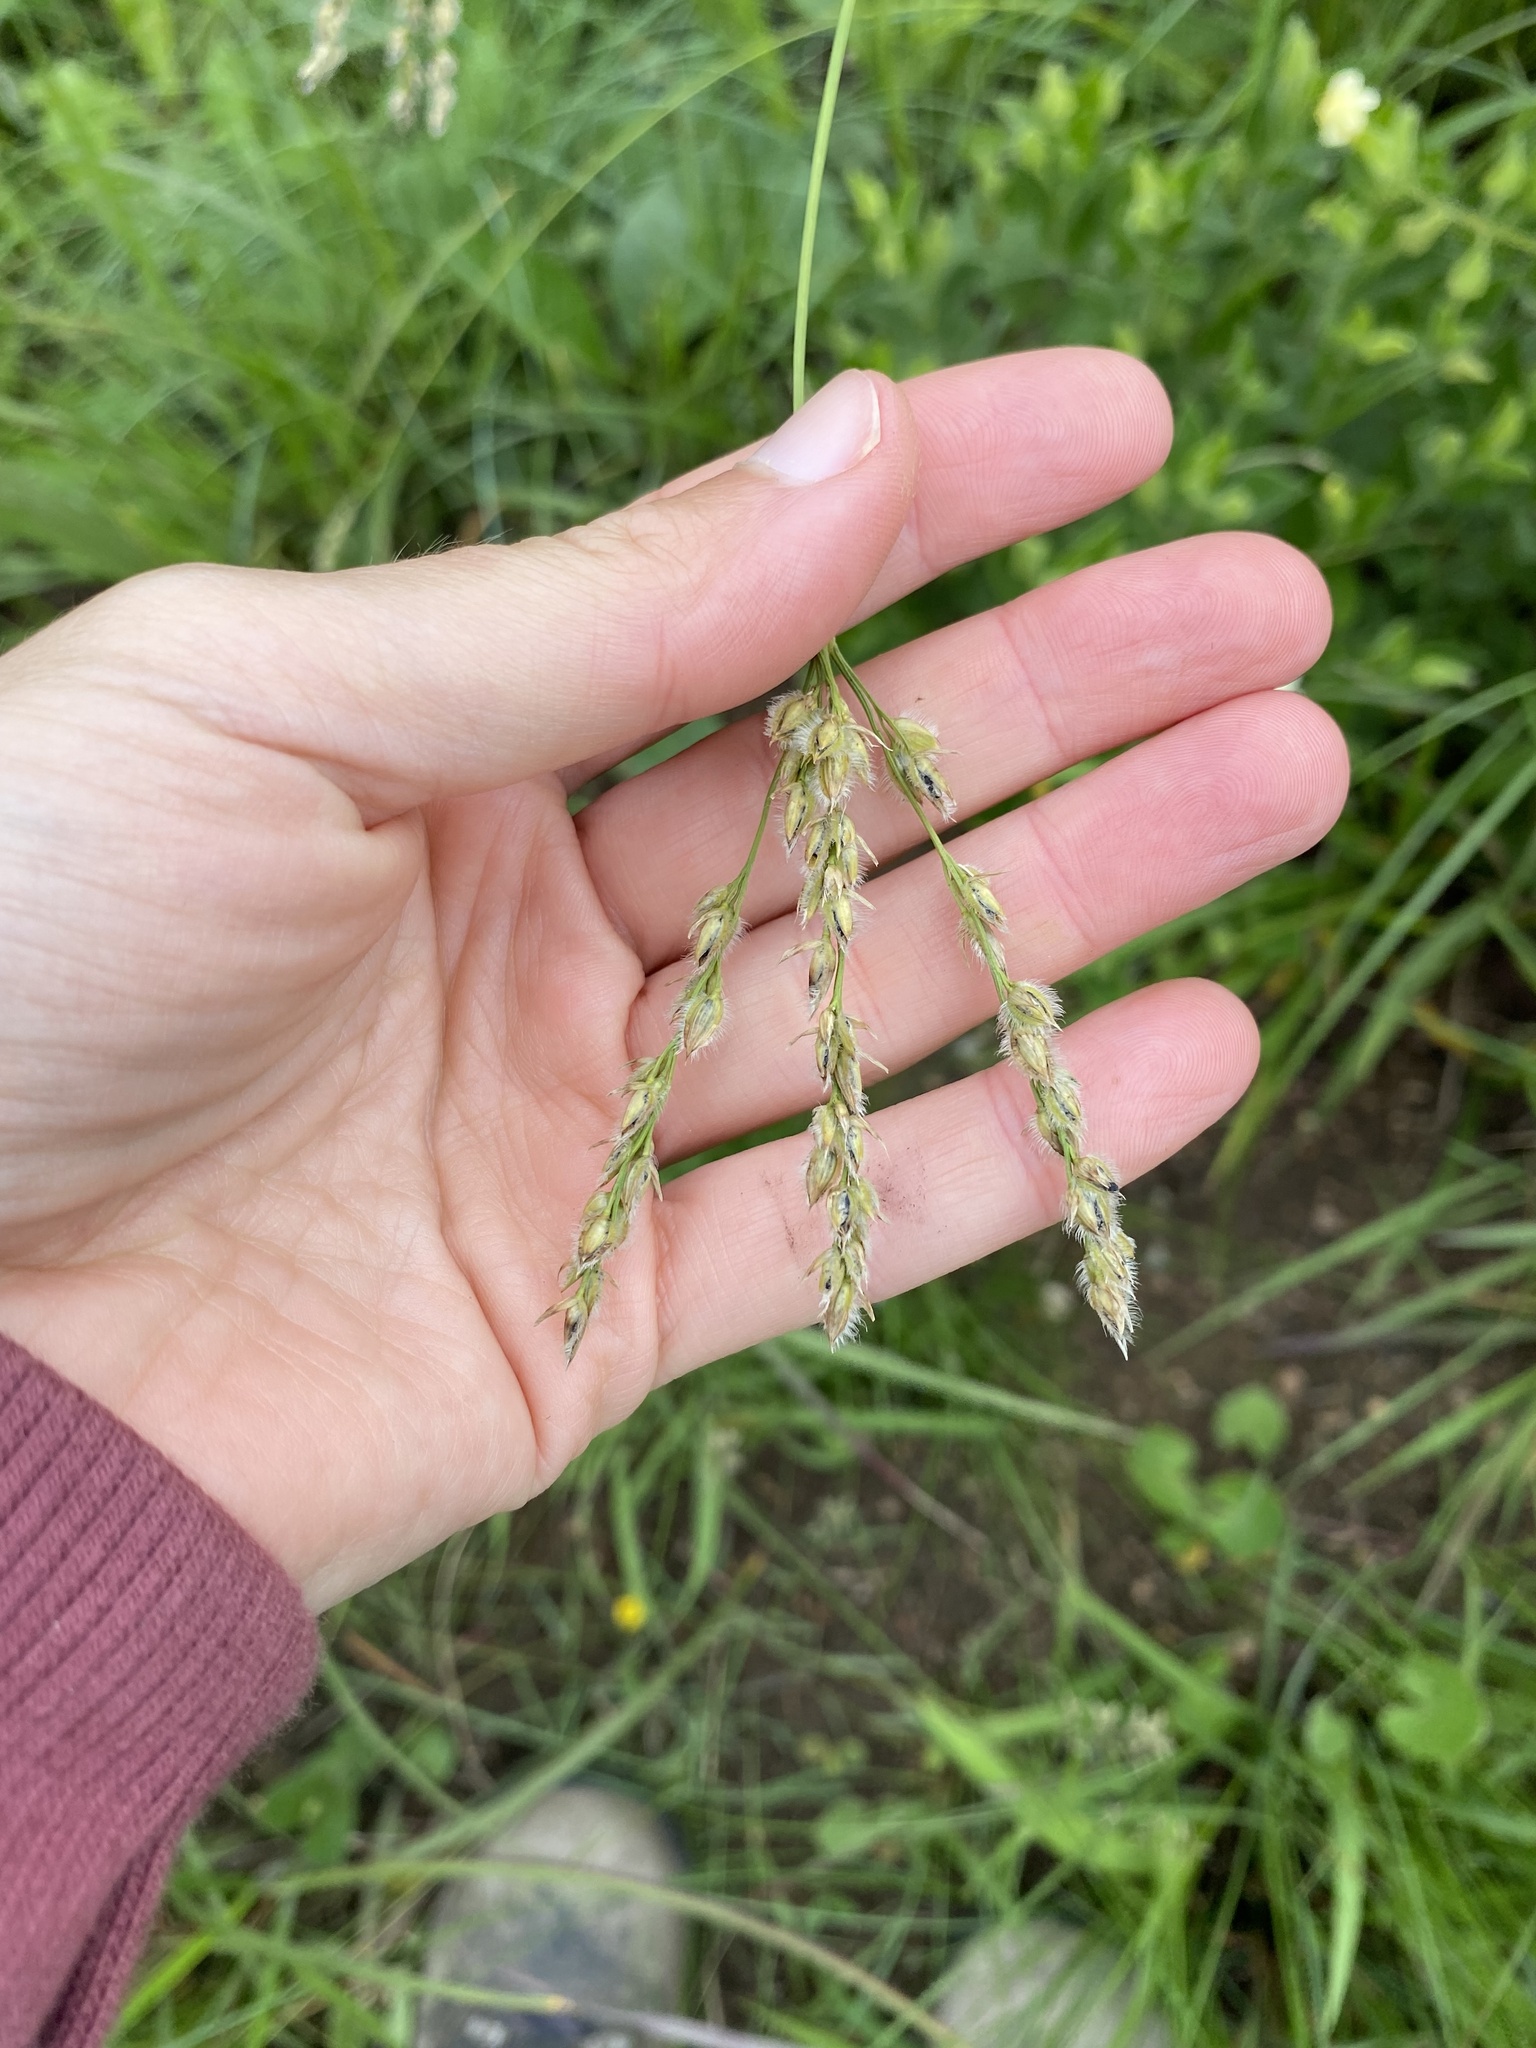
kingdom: Plantae
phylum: Tracheophyta
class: Liliopsida
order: Poales
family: Poaceae
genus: Alloteropsis
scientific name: Alloteropsis semialata
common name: Cockatoo grass
